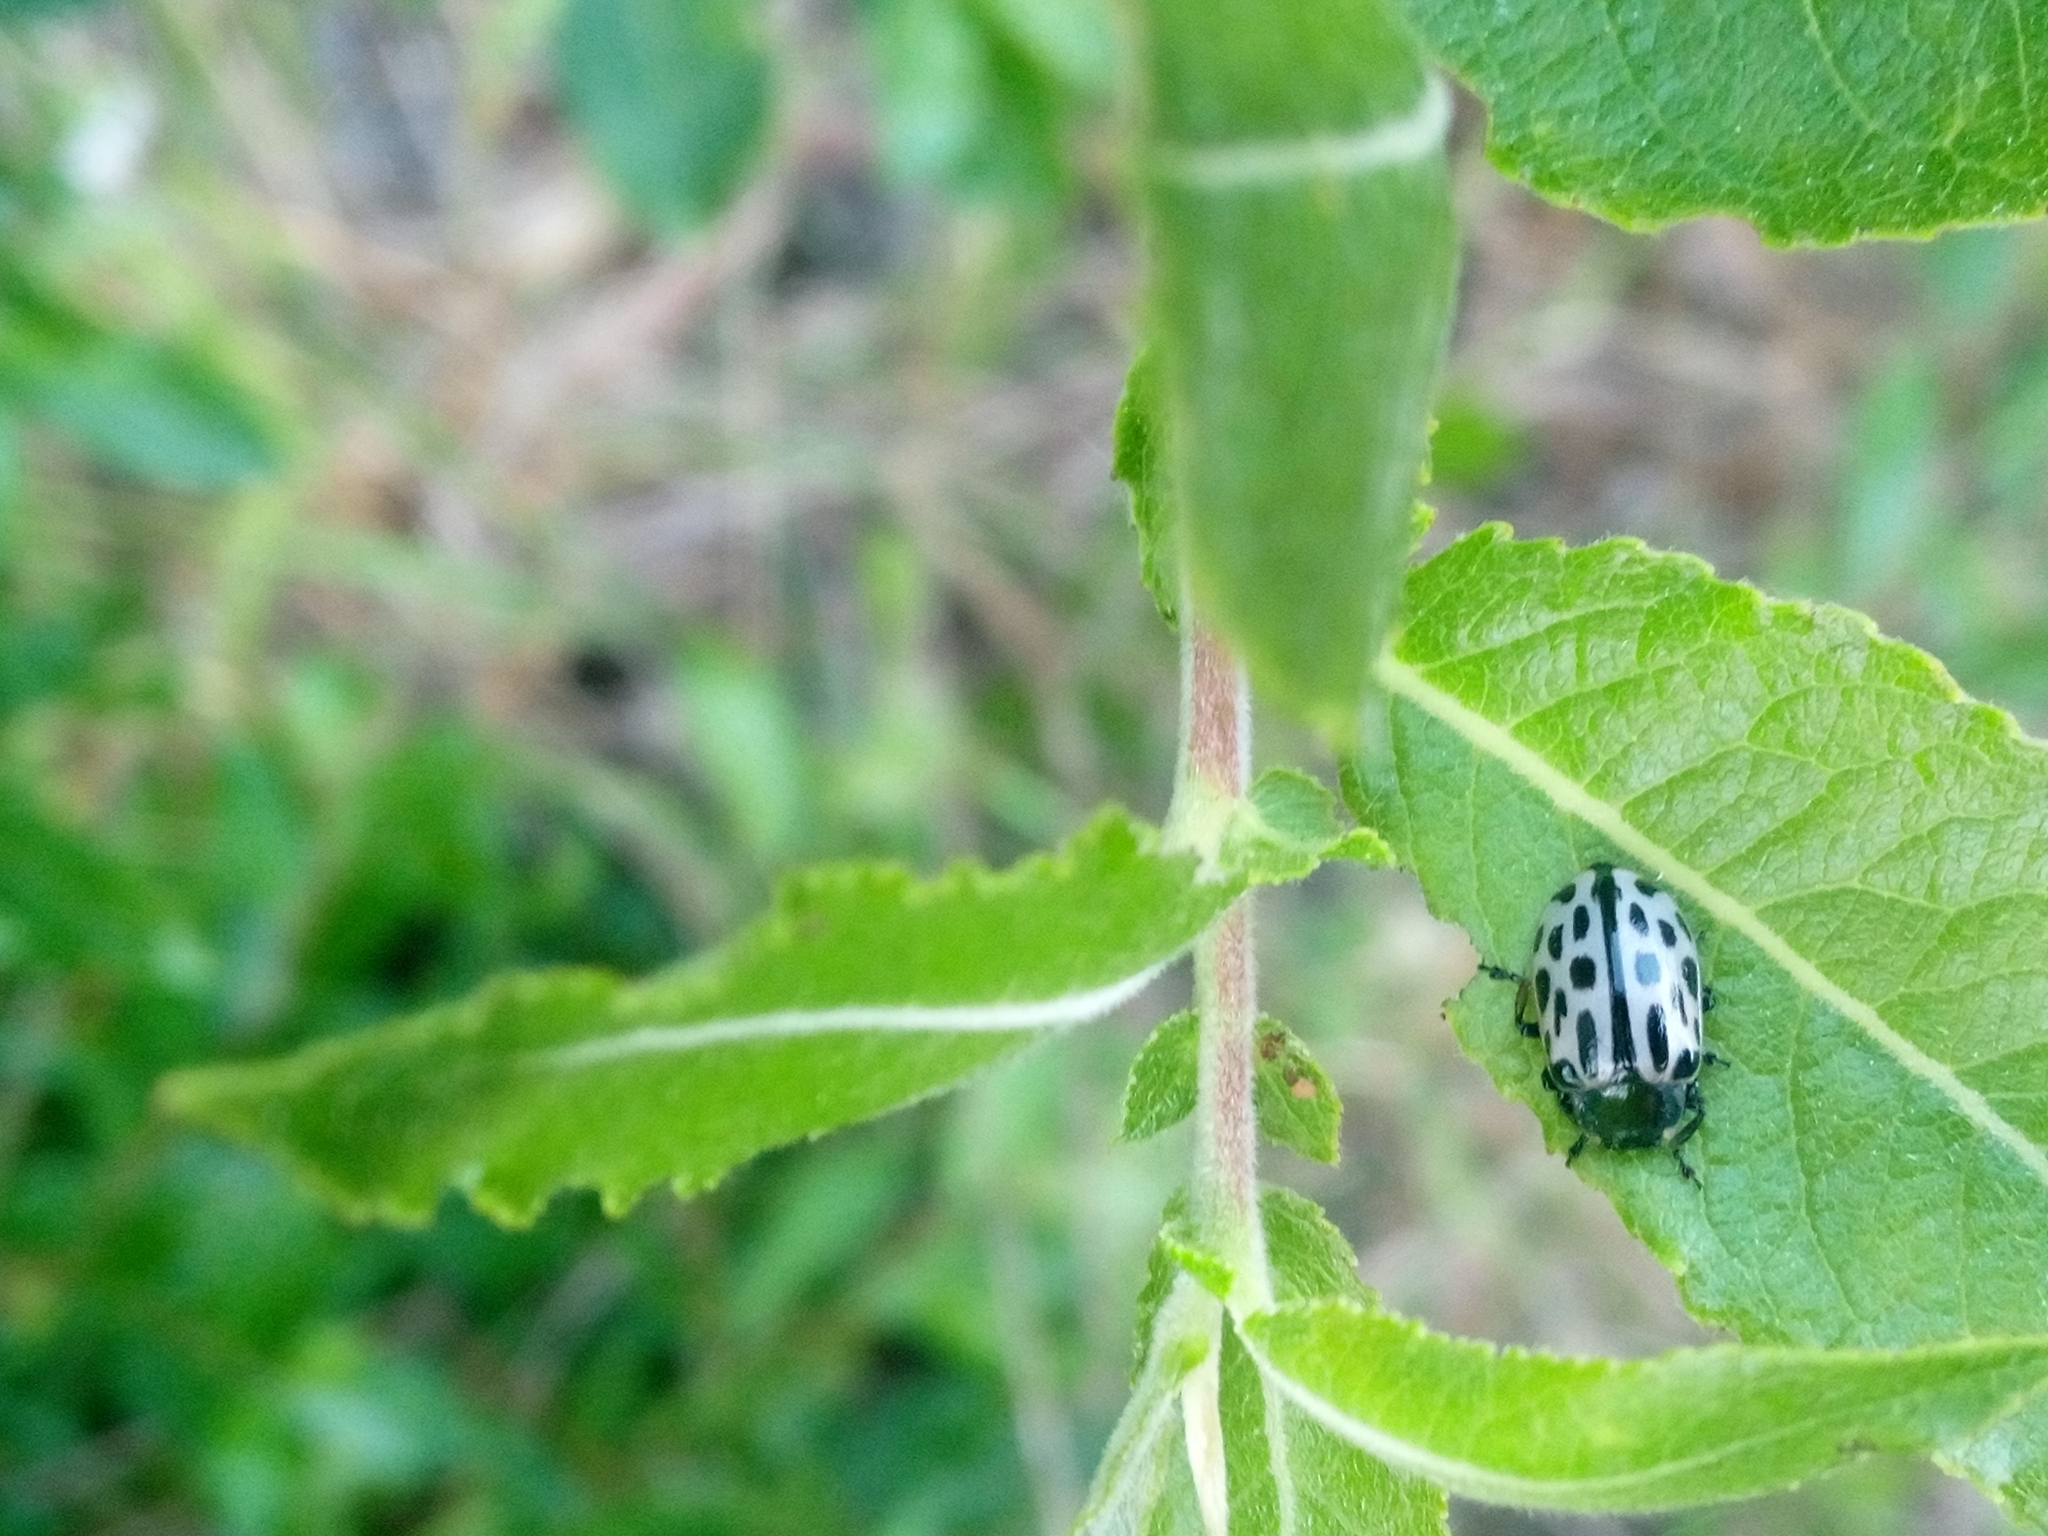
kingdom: Animalia
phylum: Arthropoda
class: Insecta
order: Coleoptera
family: Chrysomelidae
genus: Chrysomela
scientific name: Chrysomela vigintipunctata
